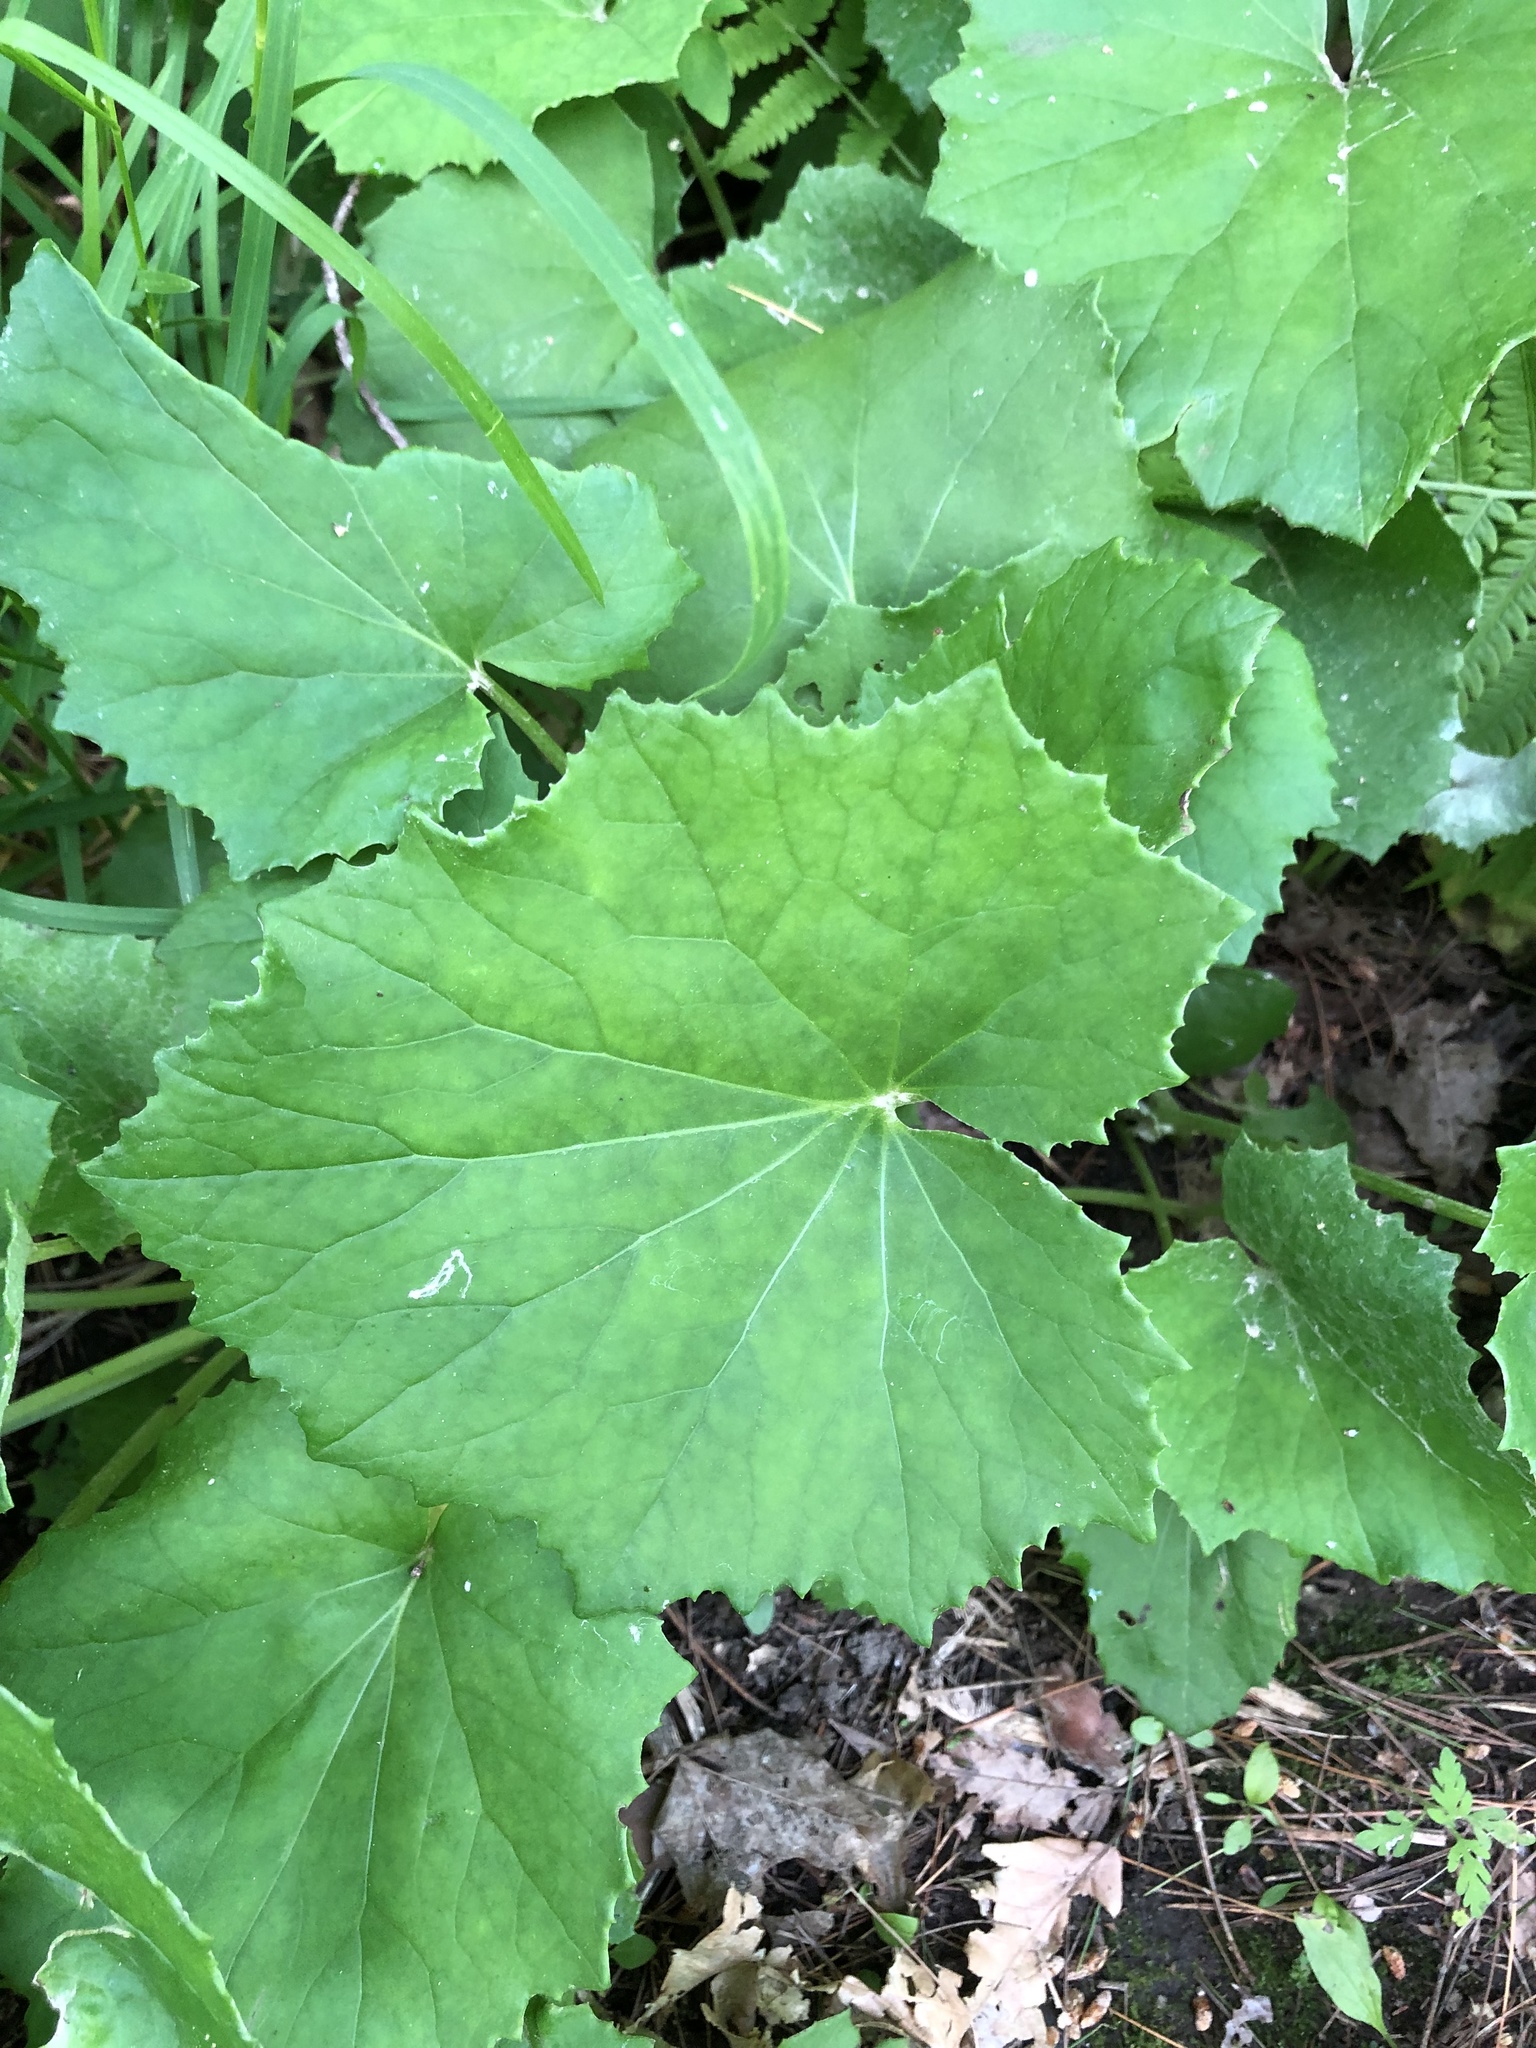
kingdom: Plantae
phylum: Tracheophyta
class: Magnoliopsida
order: Asterales
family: Asteraceae
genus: Tussilago
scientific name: Tussilago farfara
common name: Coltsfoot
